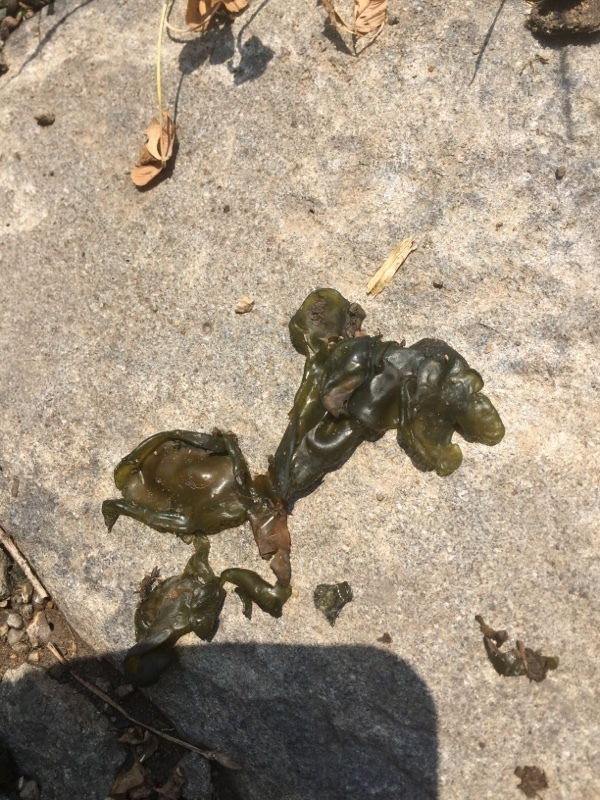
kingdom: Bacteria
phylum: Cyanobacteria
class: Cyanobacteriia
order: Cyanobacteriales
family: Nostocaceae
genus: Nostoc
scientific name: Nostoc commune
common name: Star jelly
